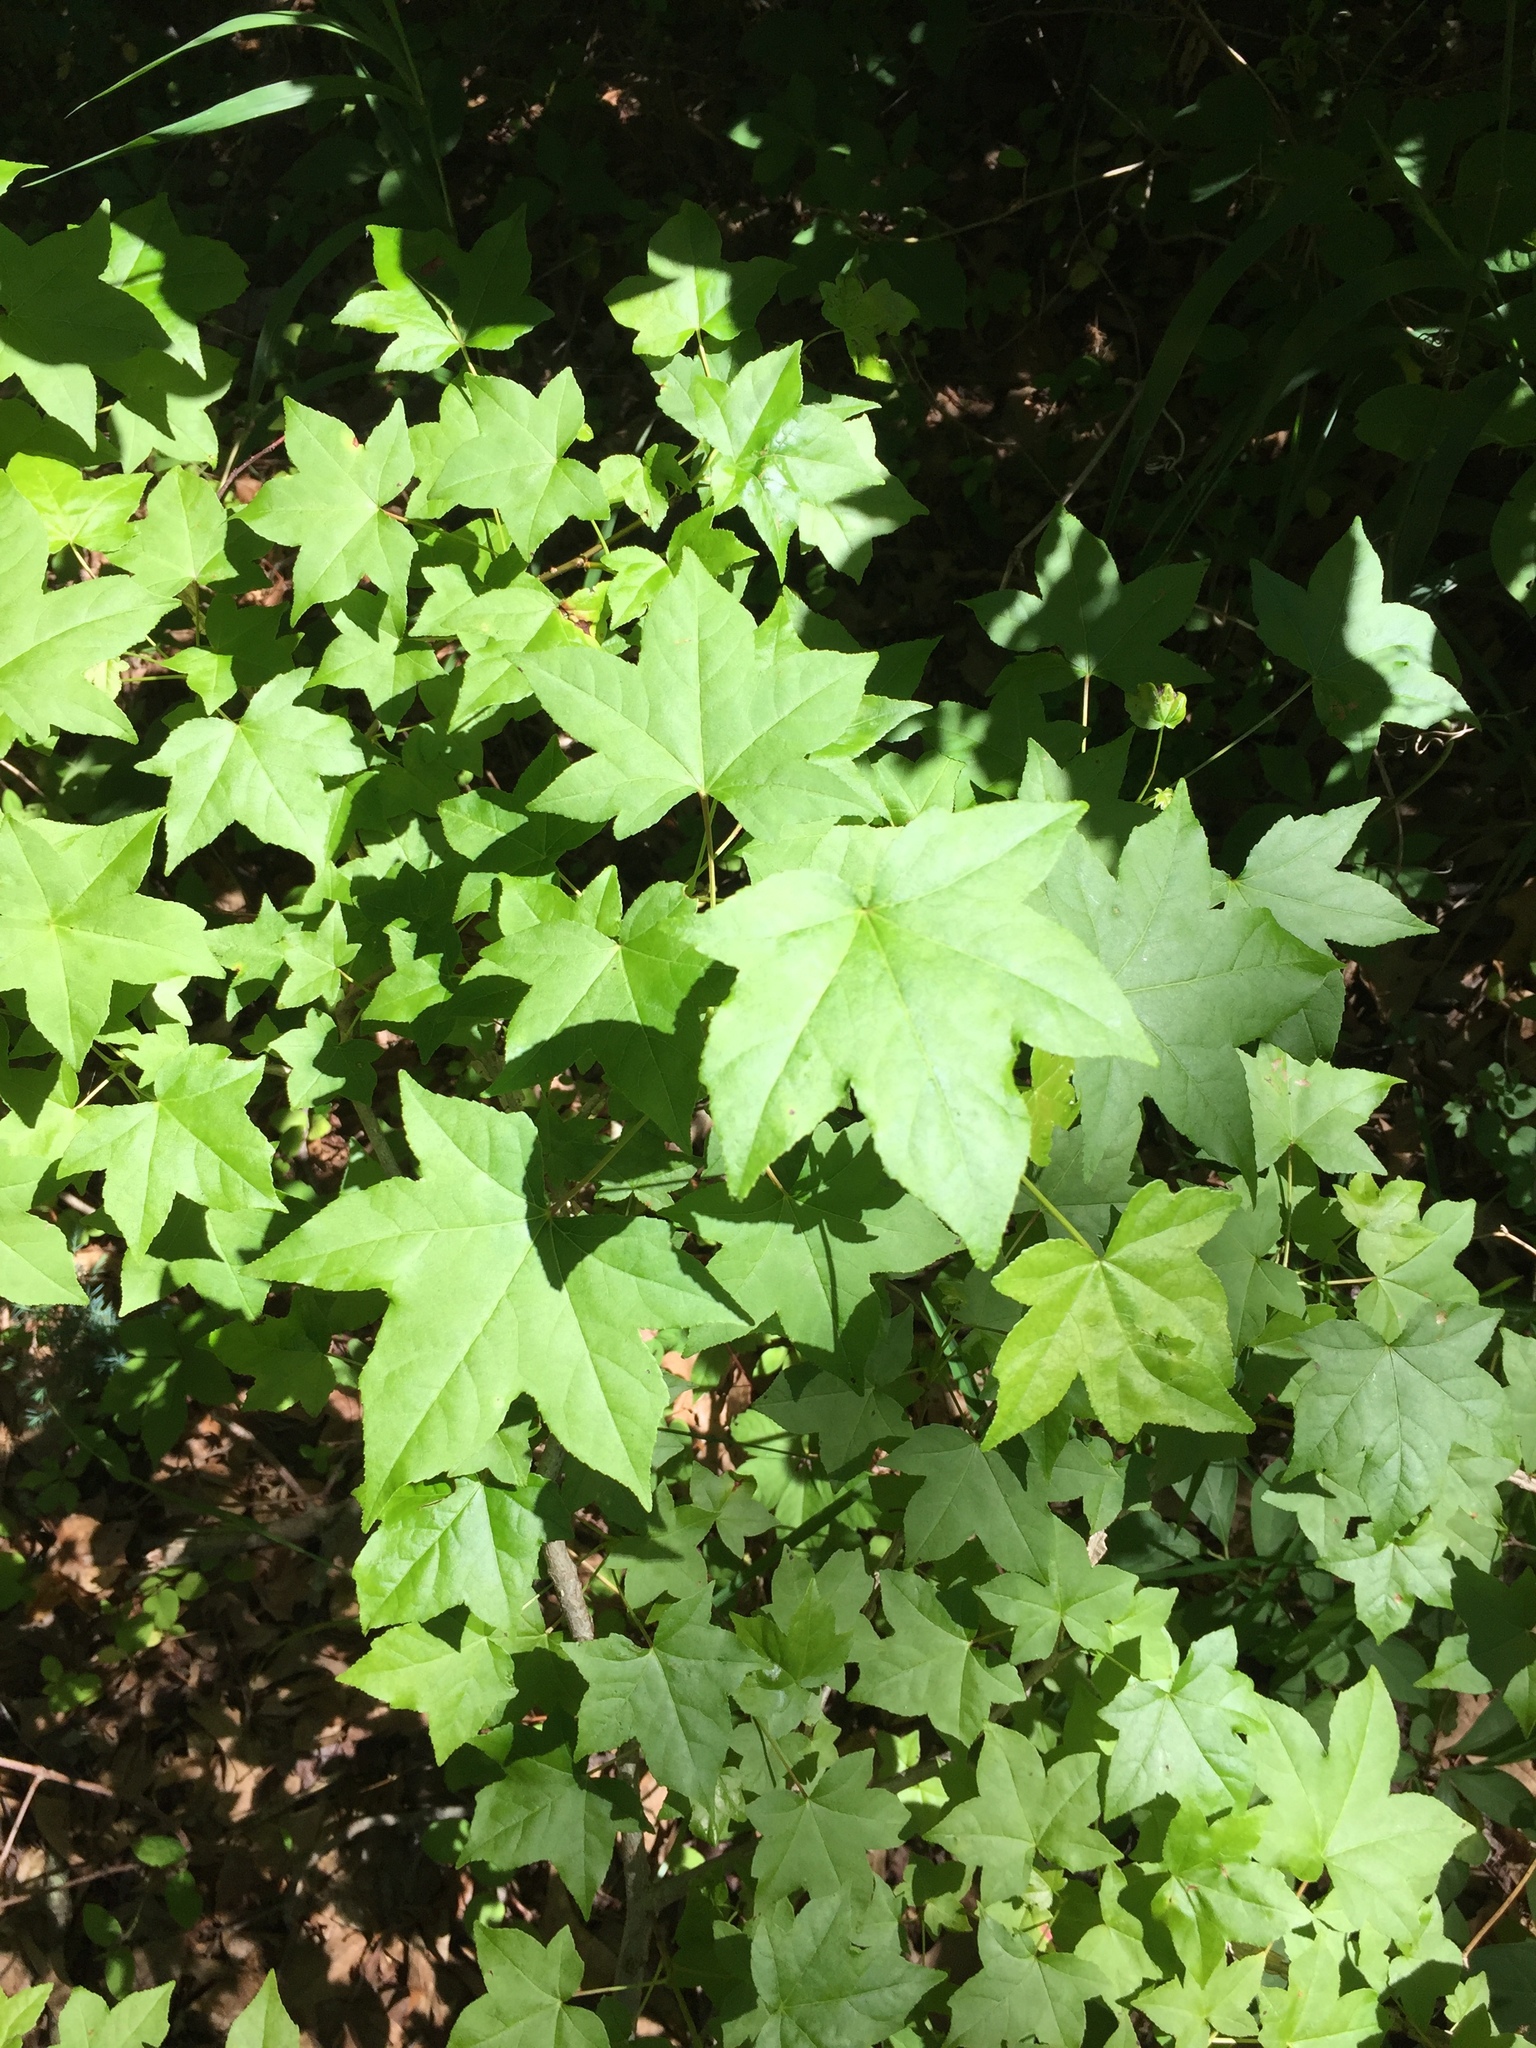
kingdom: Plantae
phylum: Tracheophyta
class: Magnoliopsida
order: Saxifragales
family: Altingiaceae
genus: Liquidambar
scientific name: Liquidambar styraciflua
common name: Sweet gum
